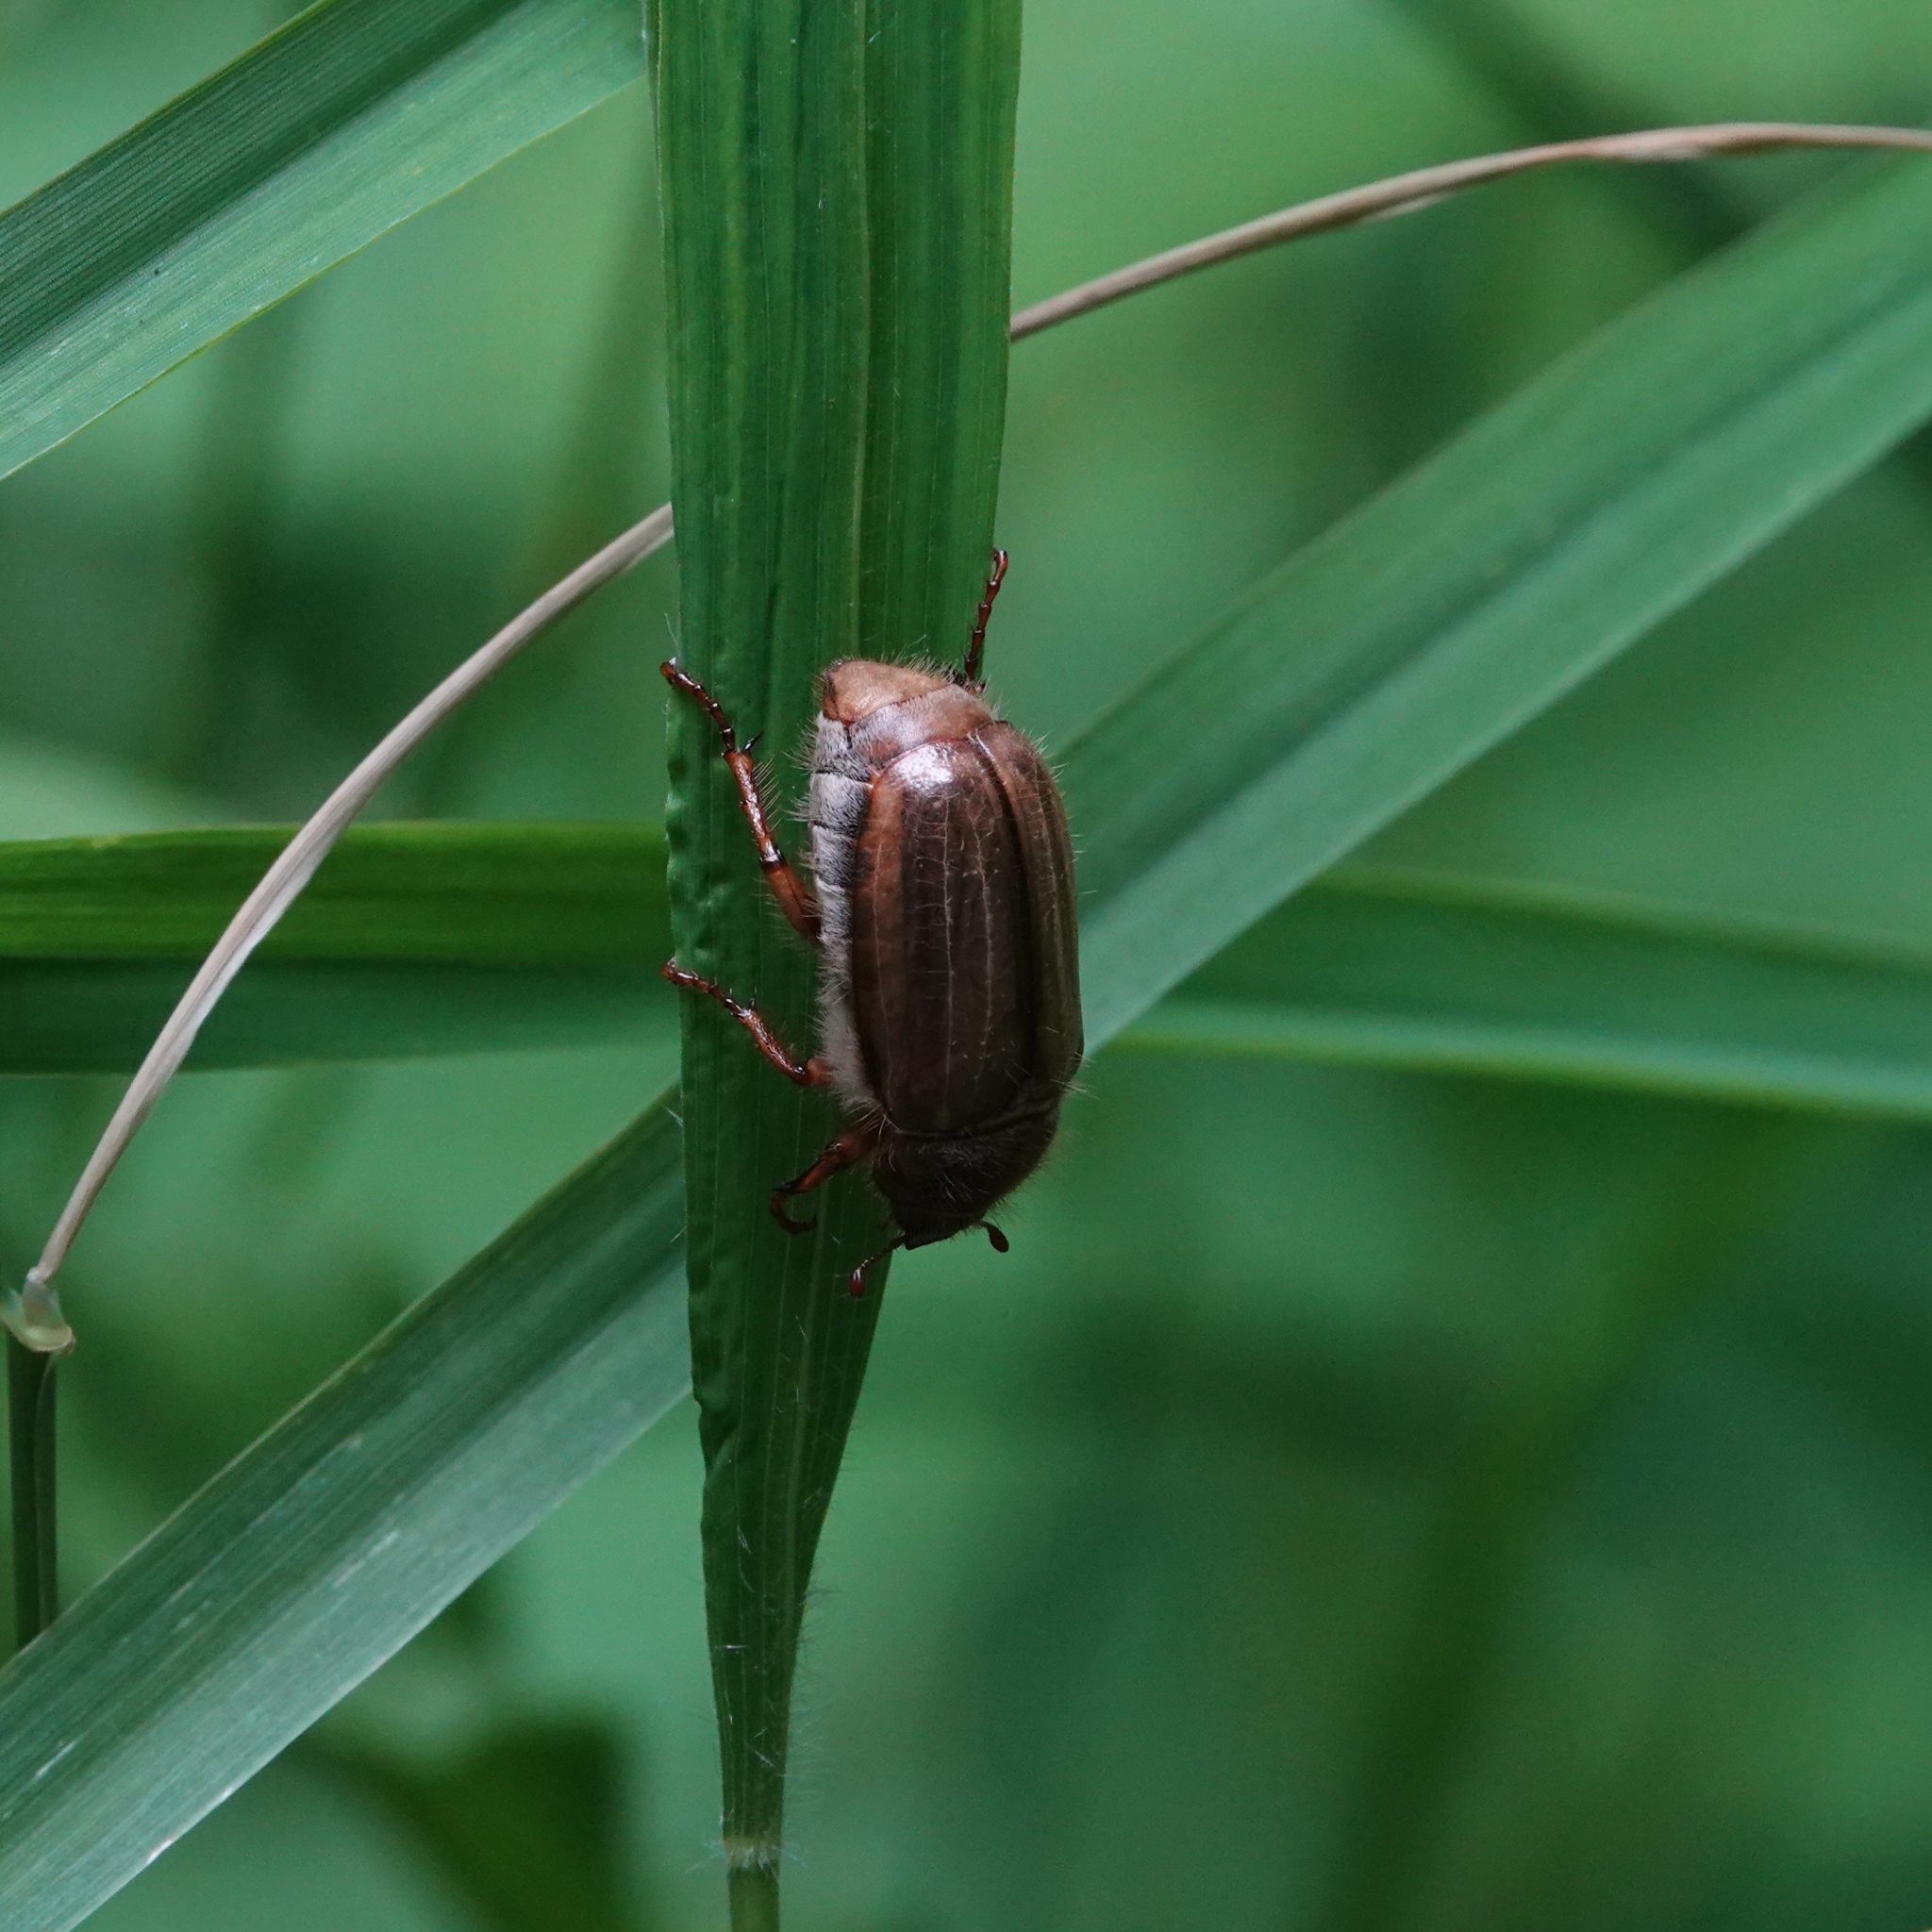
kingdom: Animalia
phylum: Arthropoda
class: Insecta
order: Coleoptera
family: Scarabaeidae
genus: Amphimallon
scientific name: Amphimallon solstitiale
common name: Summer chafer
